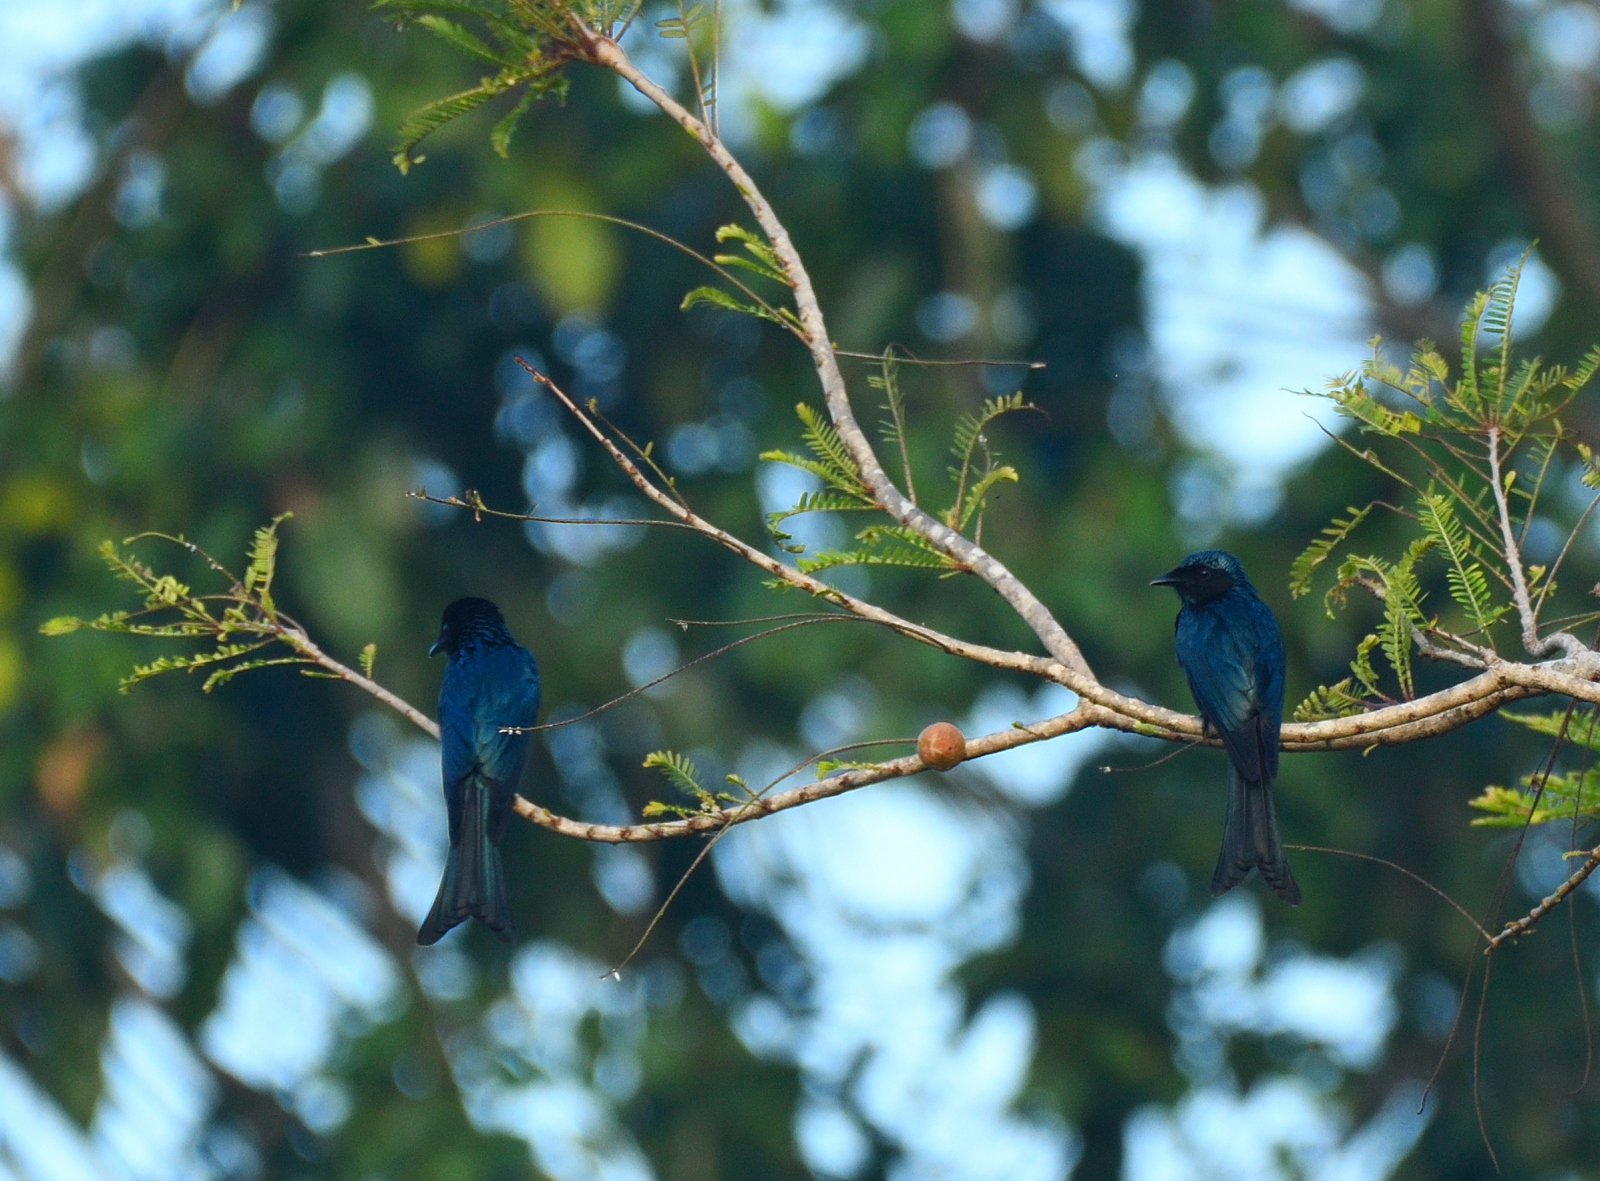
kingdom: Animalia
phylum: Chordata
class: Aves
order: Passeriformes
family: Dicruridae
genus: Dicrurus
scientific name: Dicrurus aeneus
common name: Bronzed drongo
